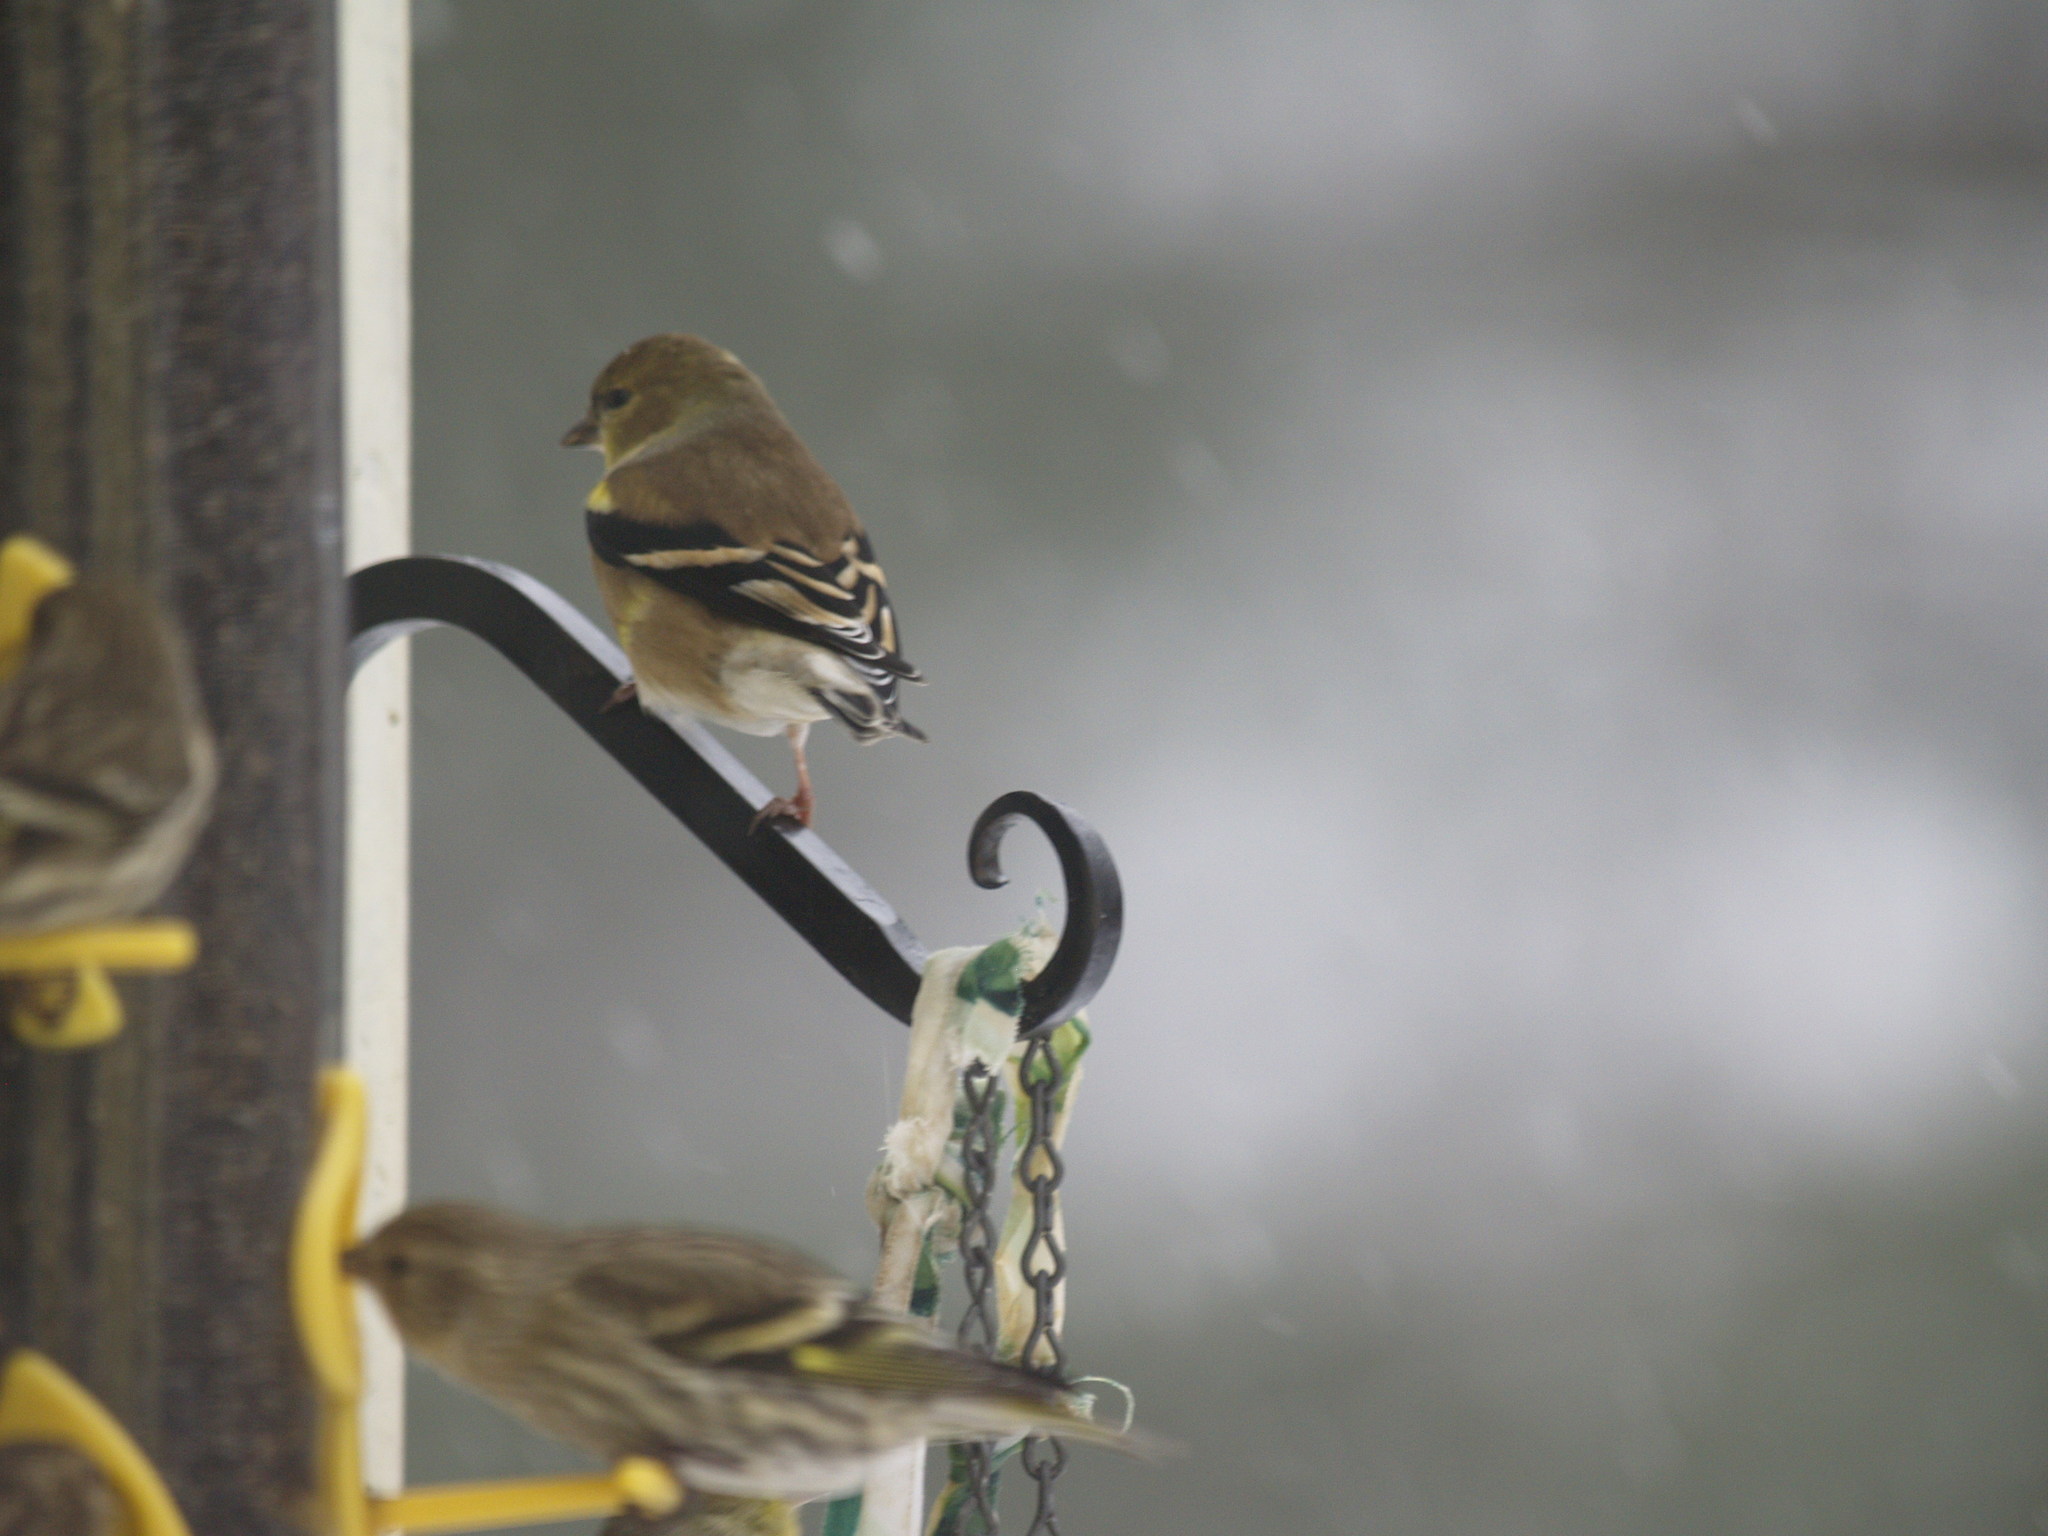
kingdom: Animalia
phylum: Chordata
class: Aves
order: Passeriformes
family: Fringillidae
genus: Spinus
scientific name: Spinus tristis
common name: American goldfinch
